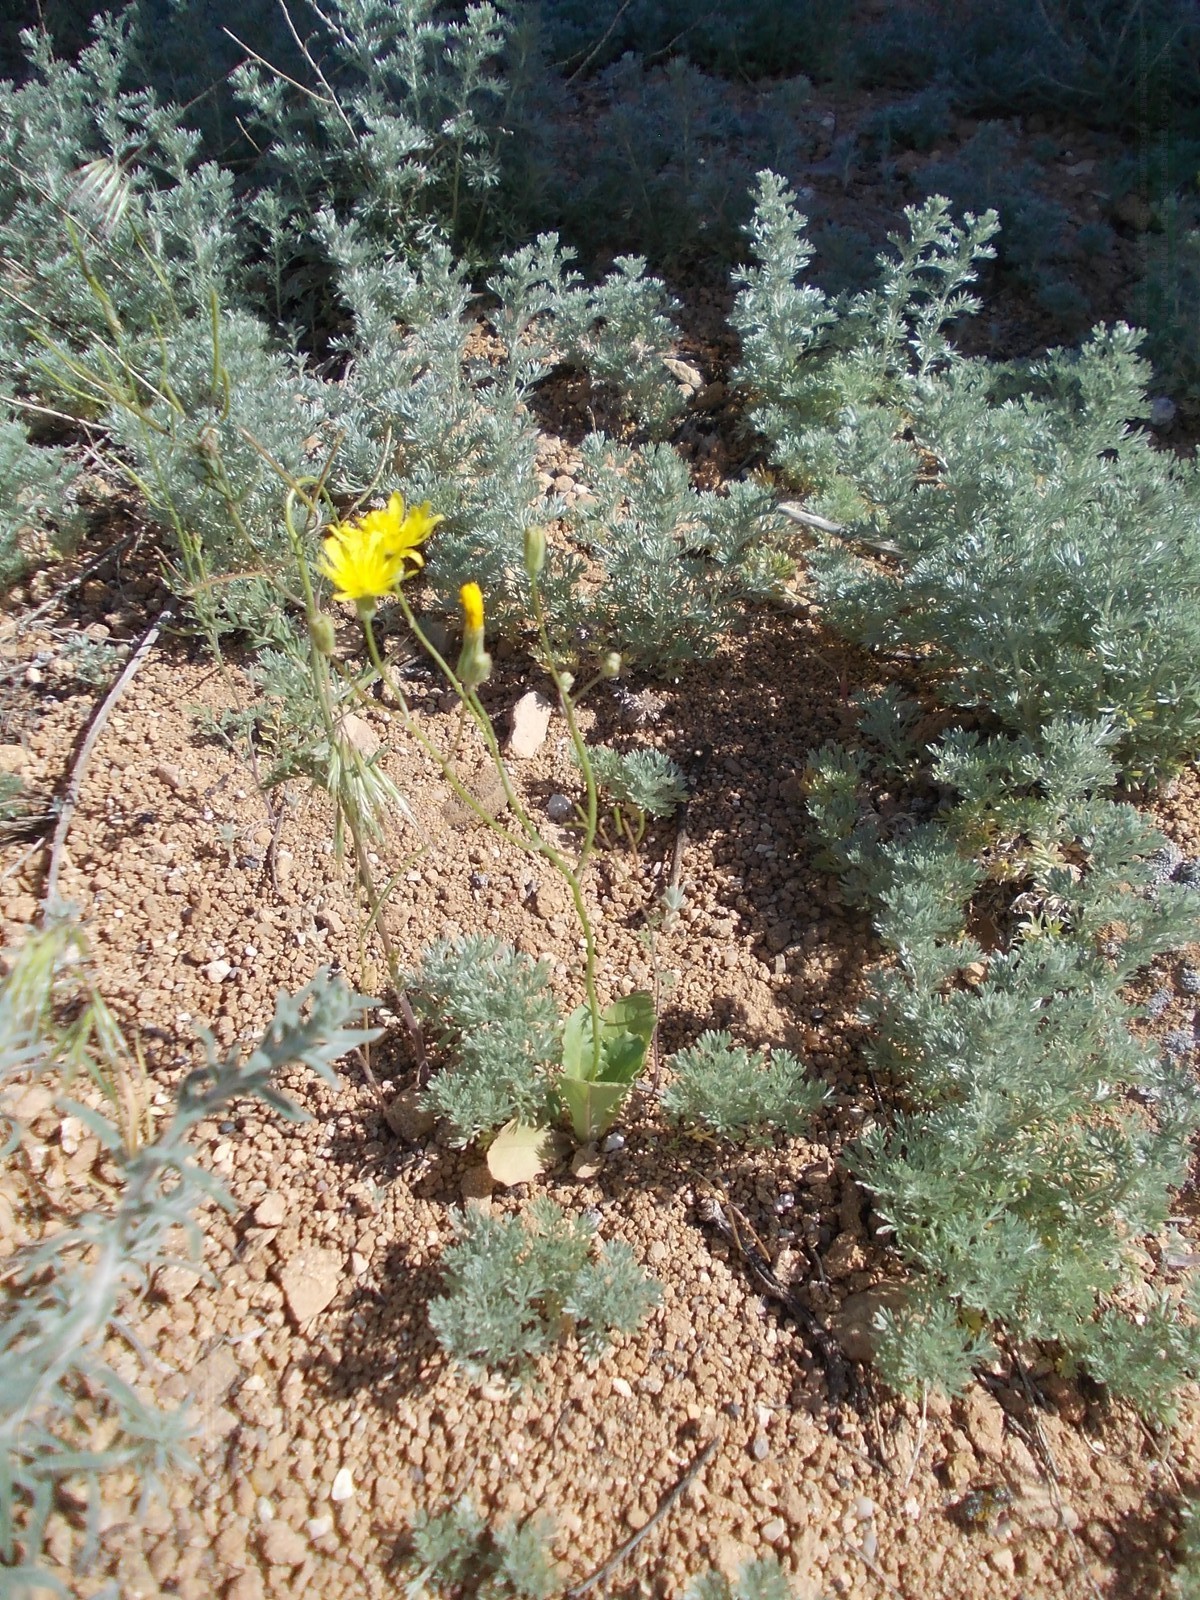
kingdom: Plantae
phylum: Tracheophyta
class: Magnoliopsida
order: Asterales
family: Asteraceae
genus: Crepis
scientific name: Crepis sancta
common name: Hawk's-beard
